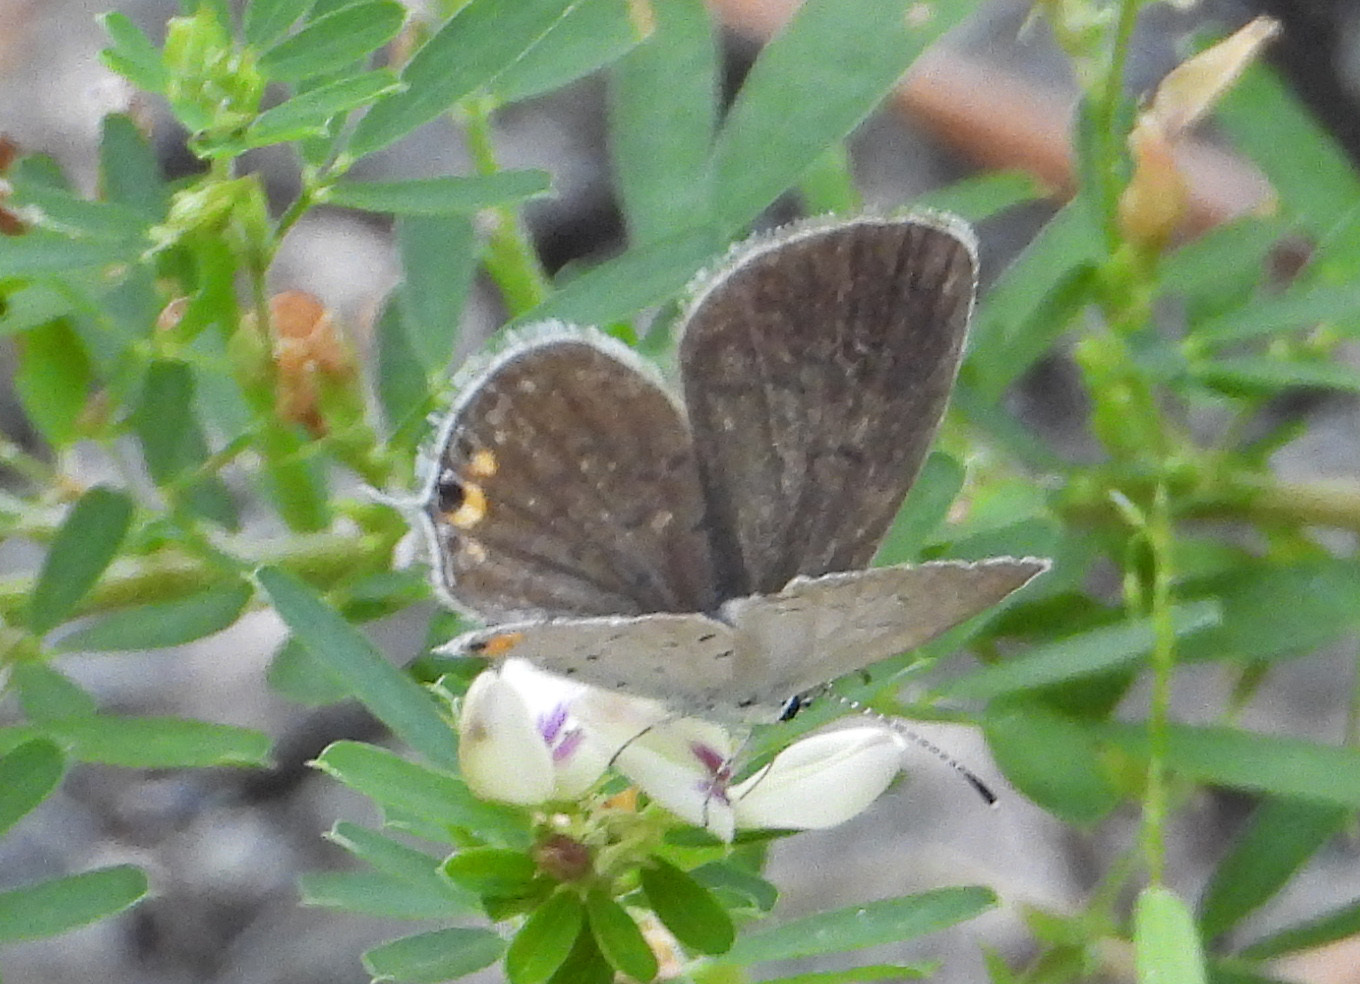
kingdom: Animalia
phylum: Arthropoda
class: Insecta
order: Lepidoptera
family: Lycaenidae
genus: Elkalyce
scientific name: Elkalyce comyntas
